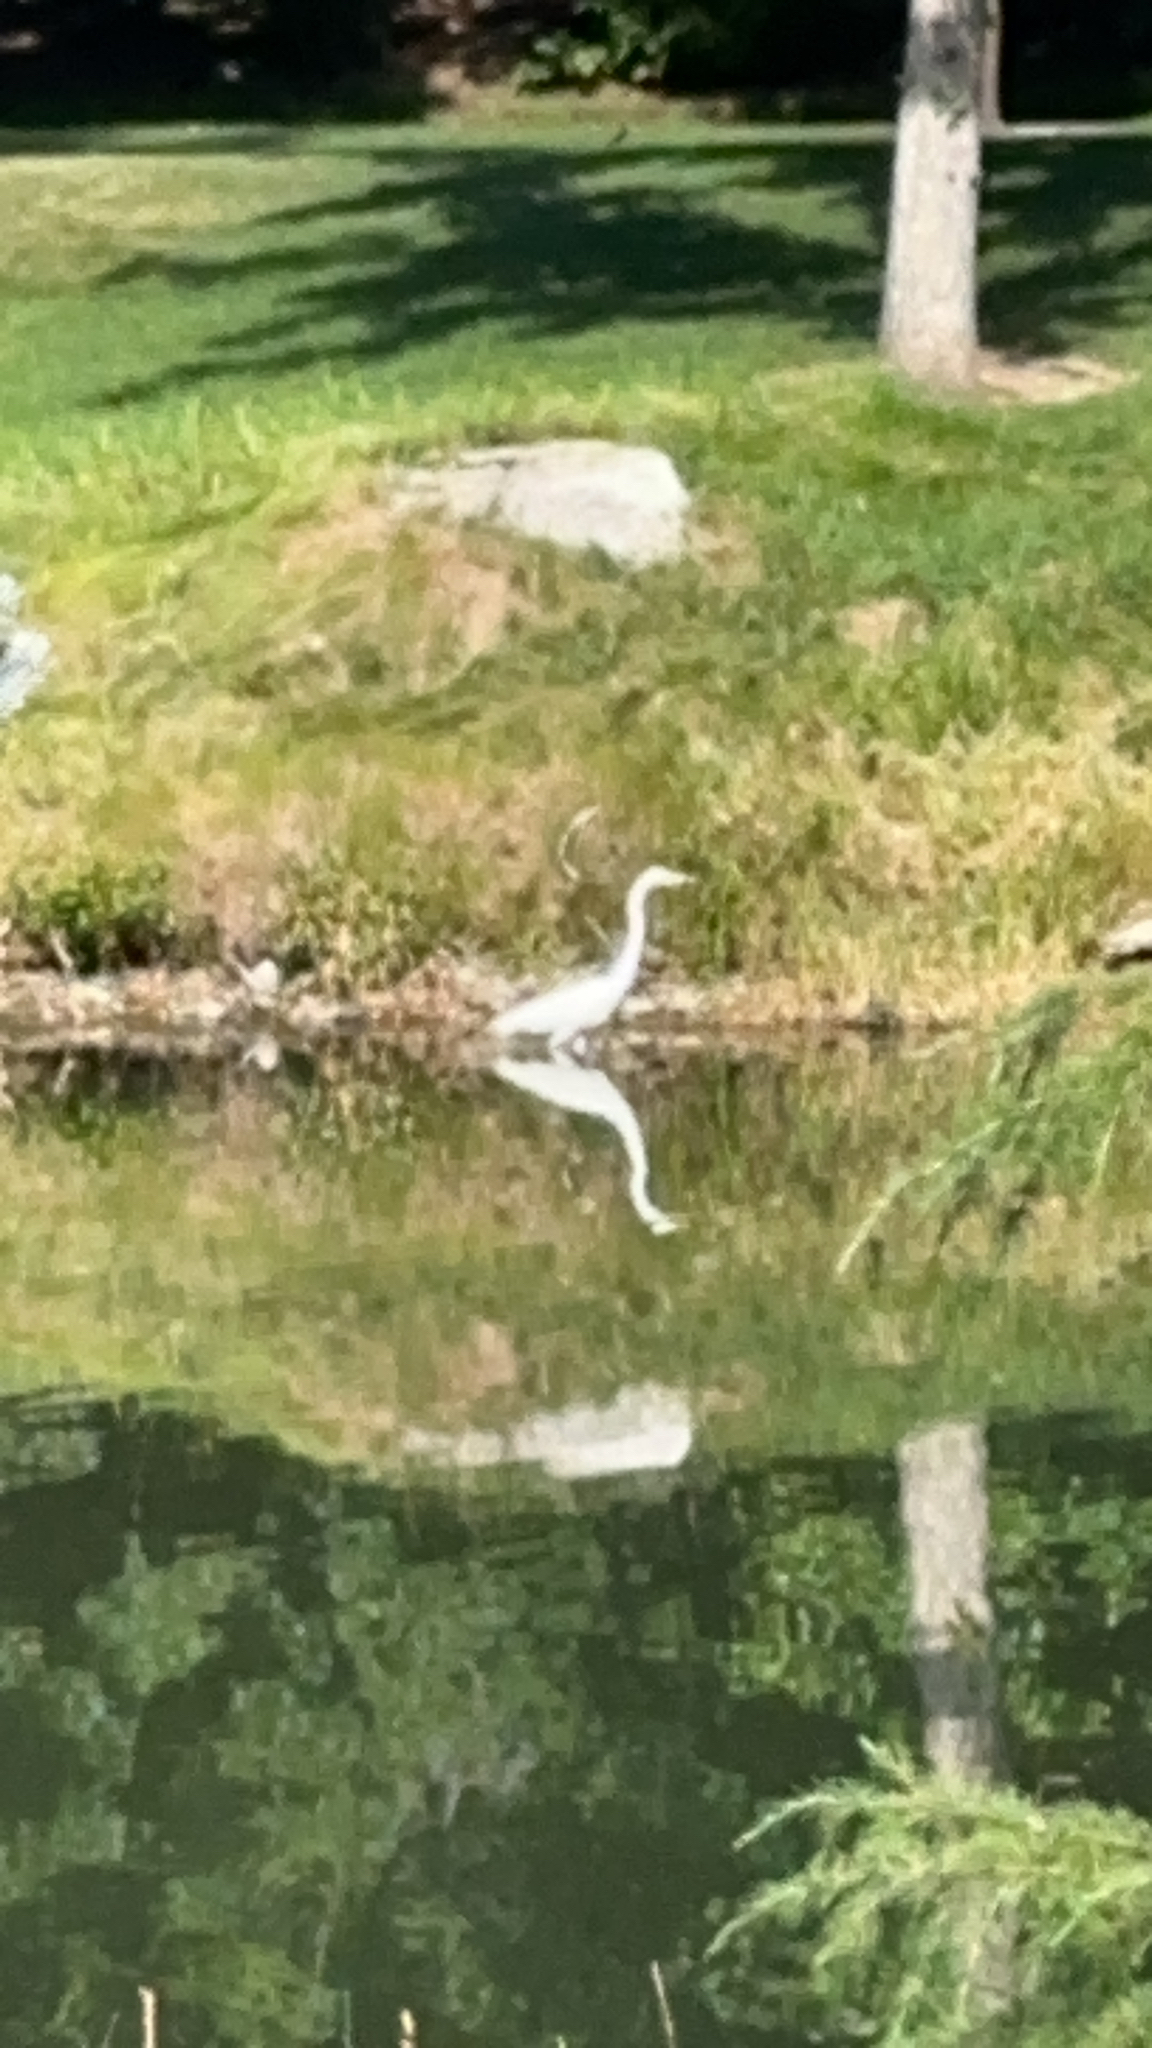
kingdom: Animalia
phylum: Chordata
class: Aves
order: Pelecaniformes
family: Ardeidae
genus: Ardea
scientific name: Ardea alba
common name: Great egret
